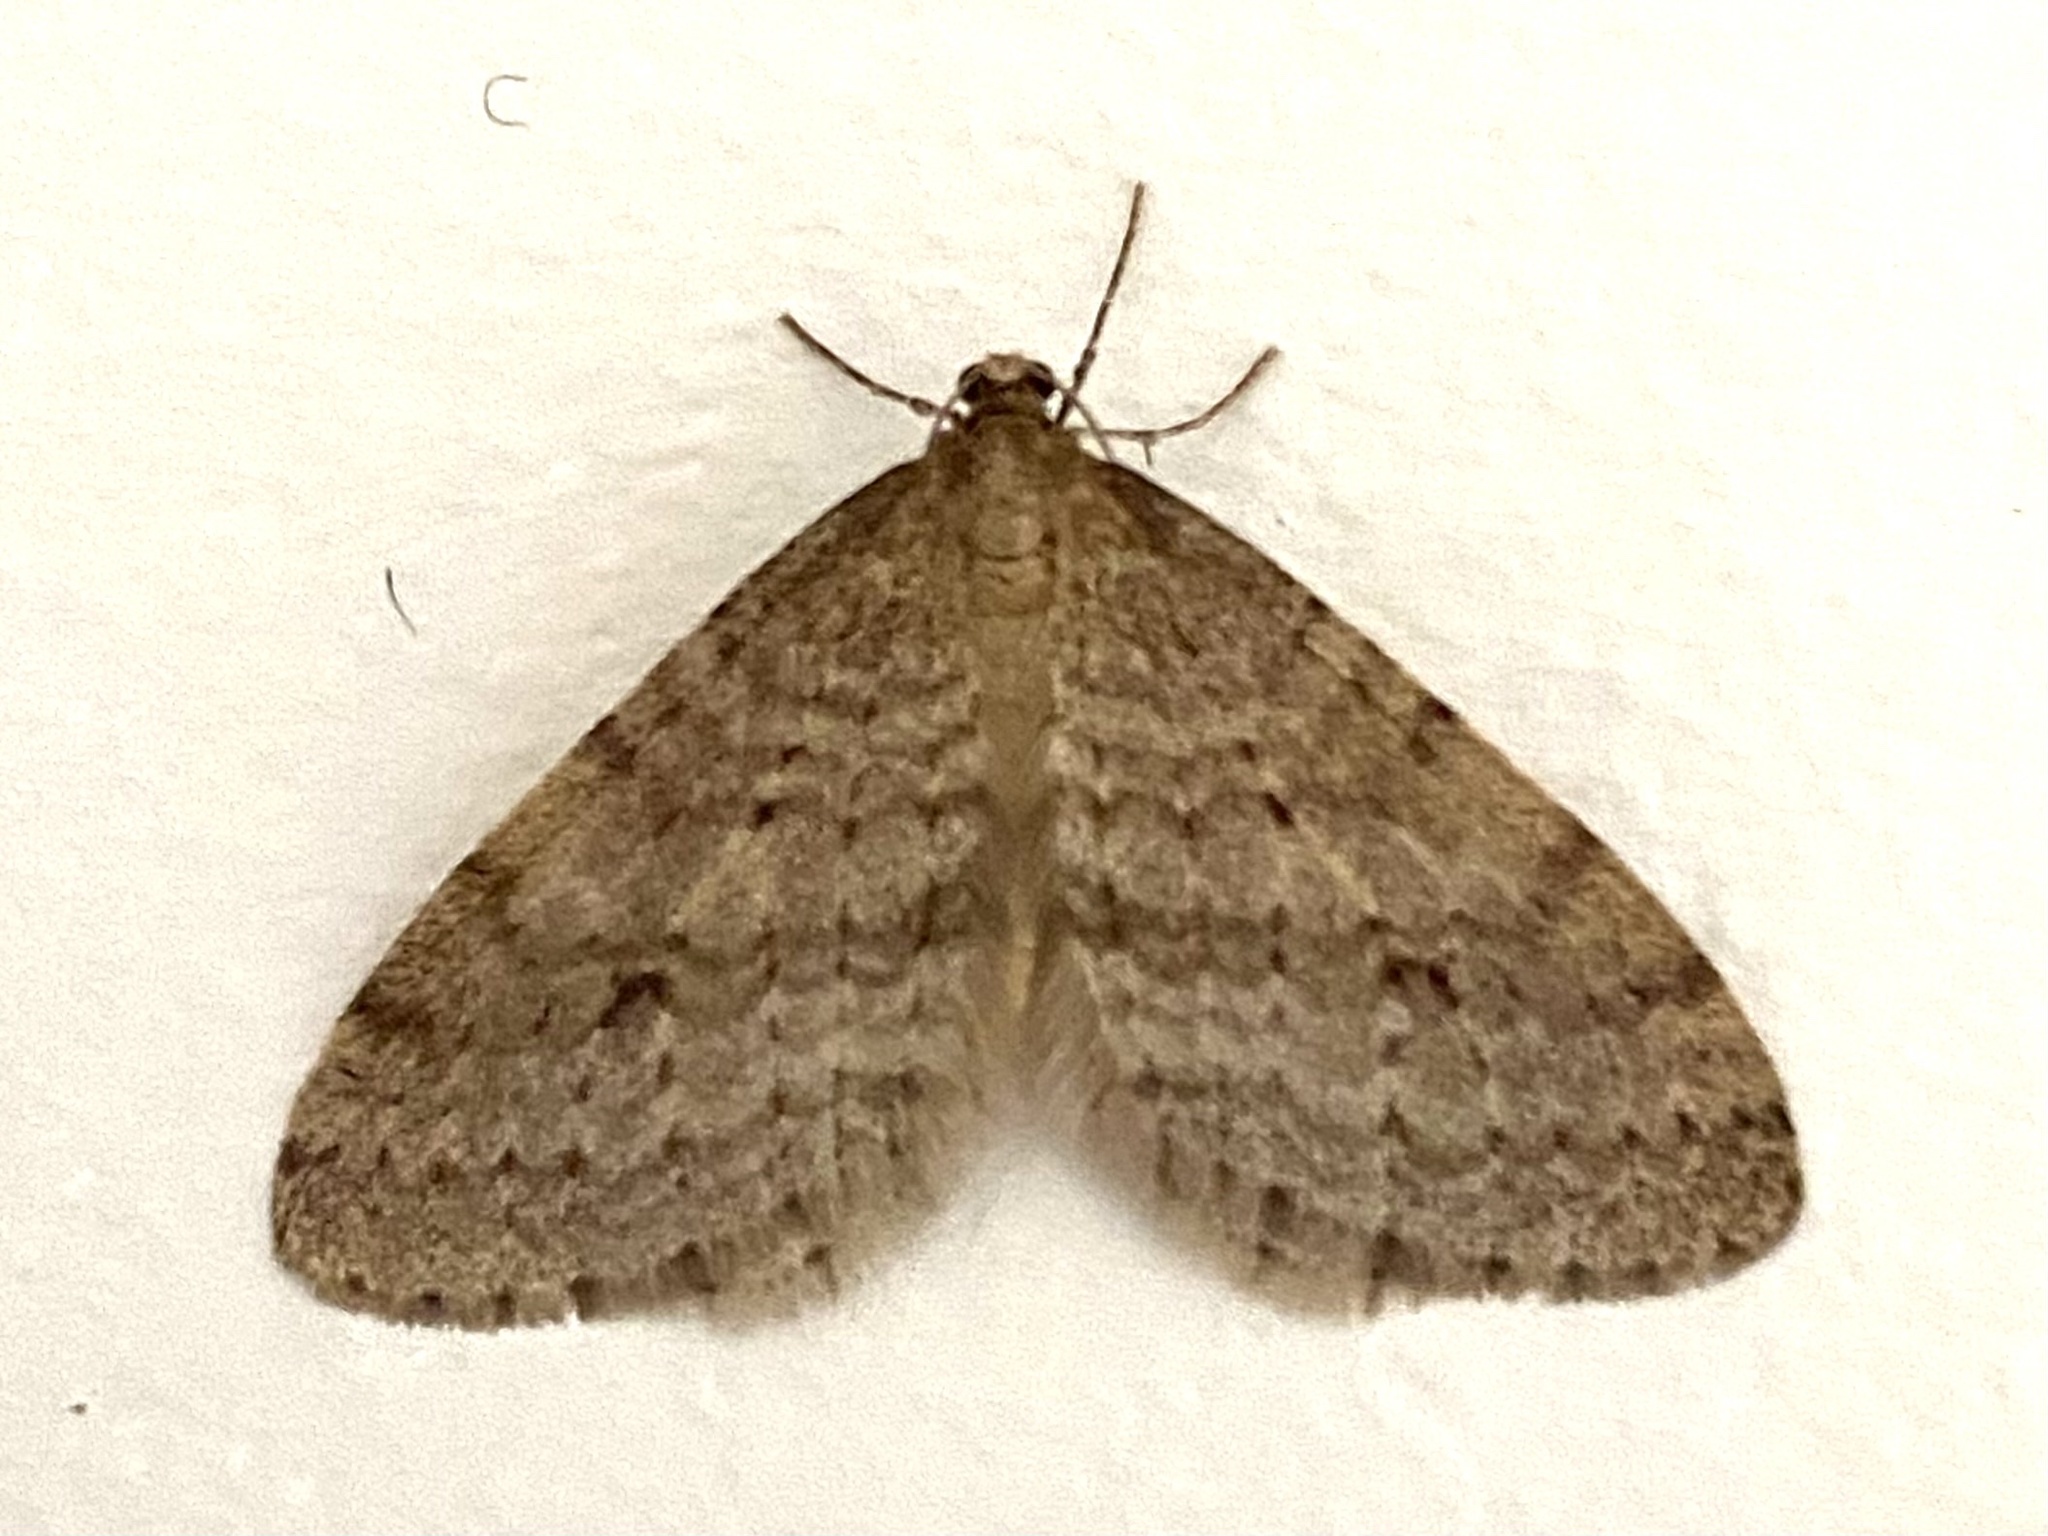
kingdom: Animalia
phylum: Arthropoda
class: Insecta
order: Lepidoptera
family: Geometridae
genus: Operophtera
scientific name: Operophtera bruceata
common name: Bruce spanworm
